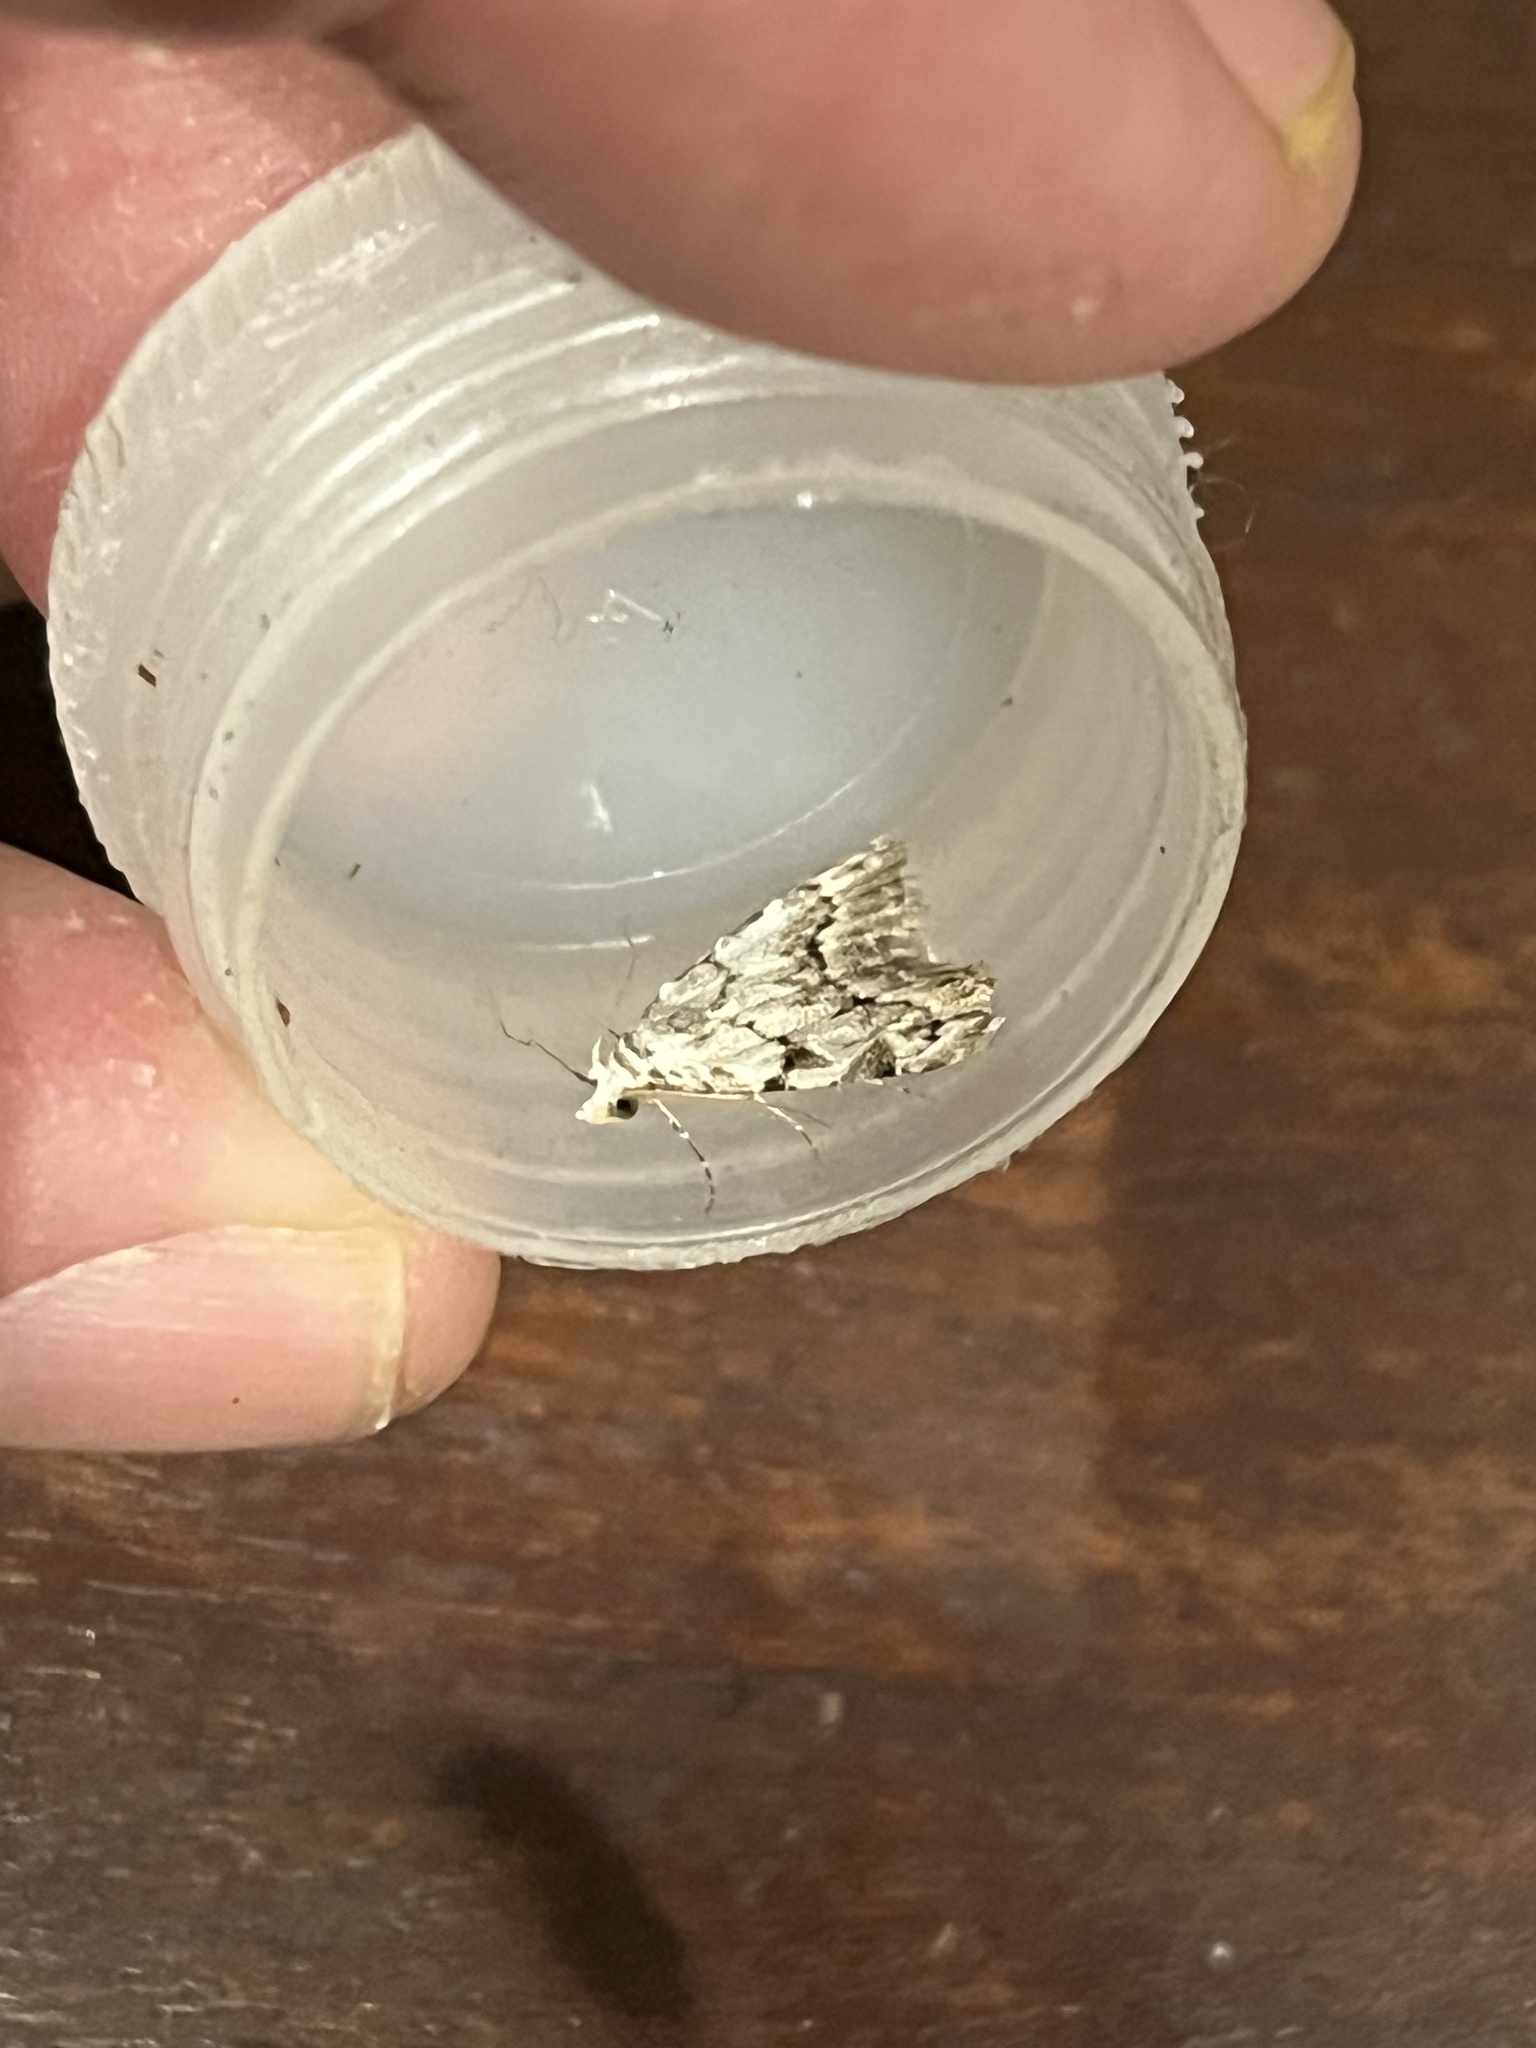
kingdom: Animalia
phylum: Arthropoda
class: Insecta
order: Lepidoptera
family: Nolidae
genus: Nola
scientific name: Nola confusalis
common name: Least black arches
